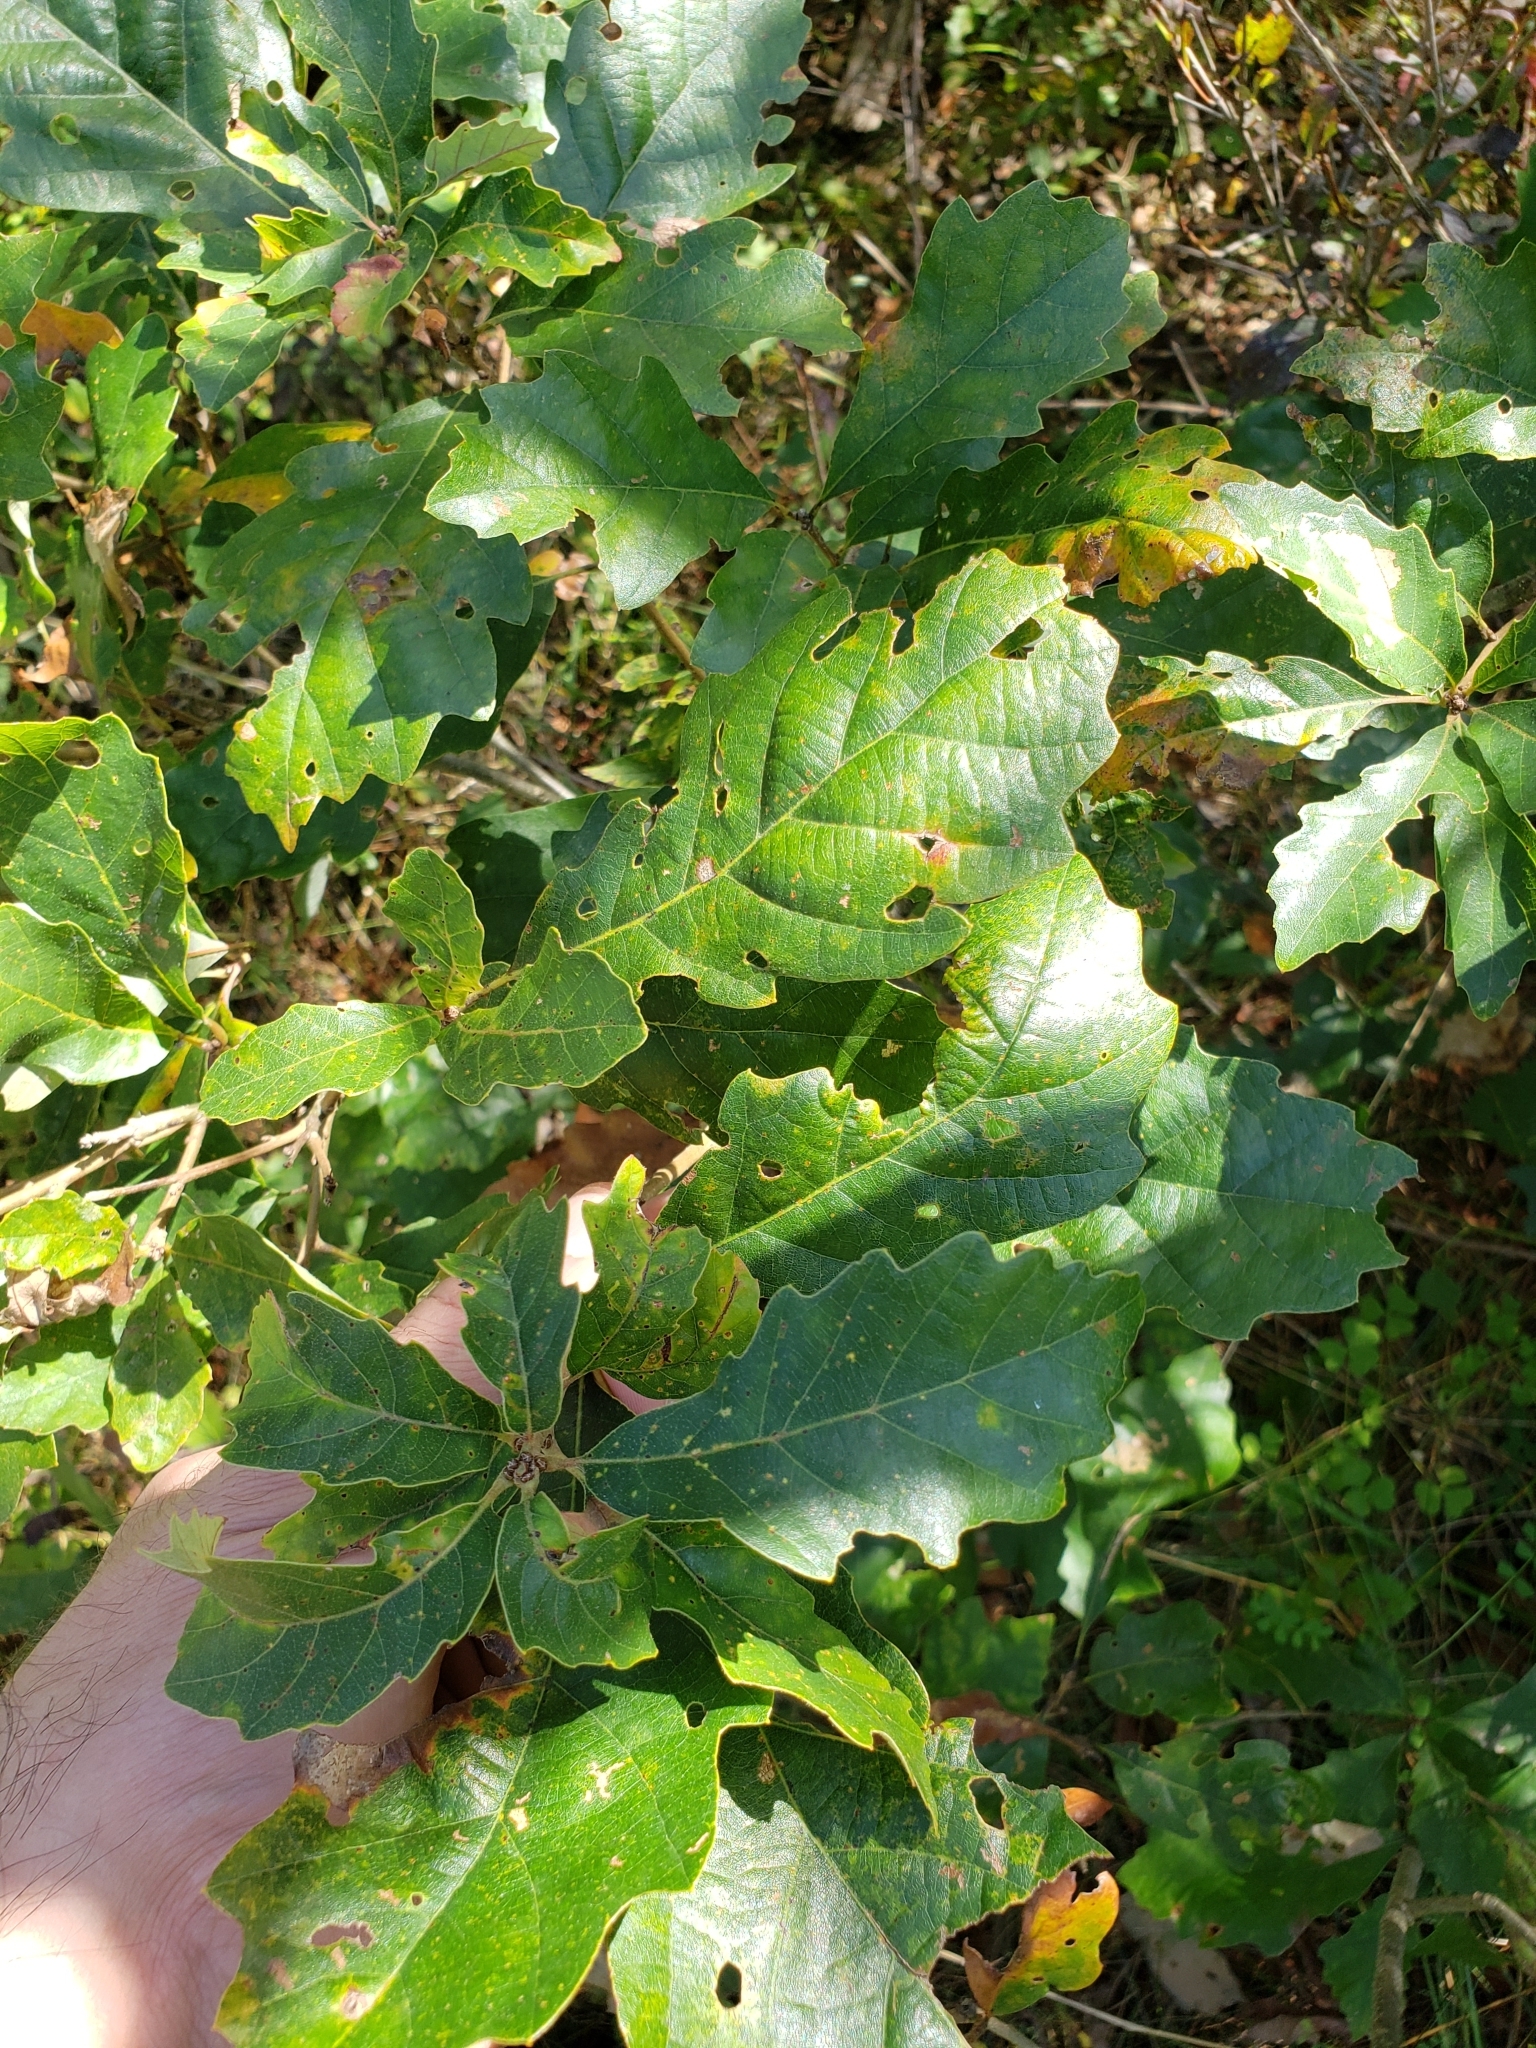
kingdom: Animalia
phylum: Arthropoda
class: Insecta
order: Hymenoptera
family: Cynipidae
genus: Neuroterus
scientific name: Neuroterus quercusverrucarum
